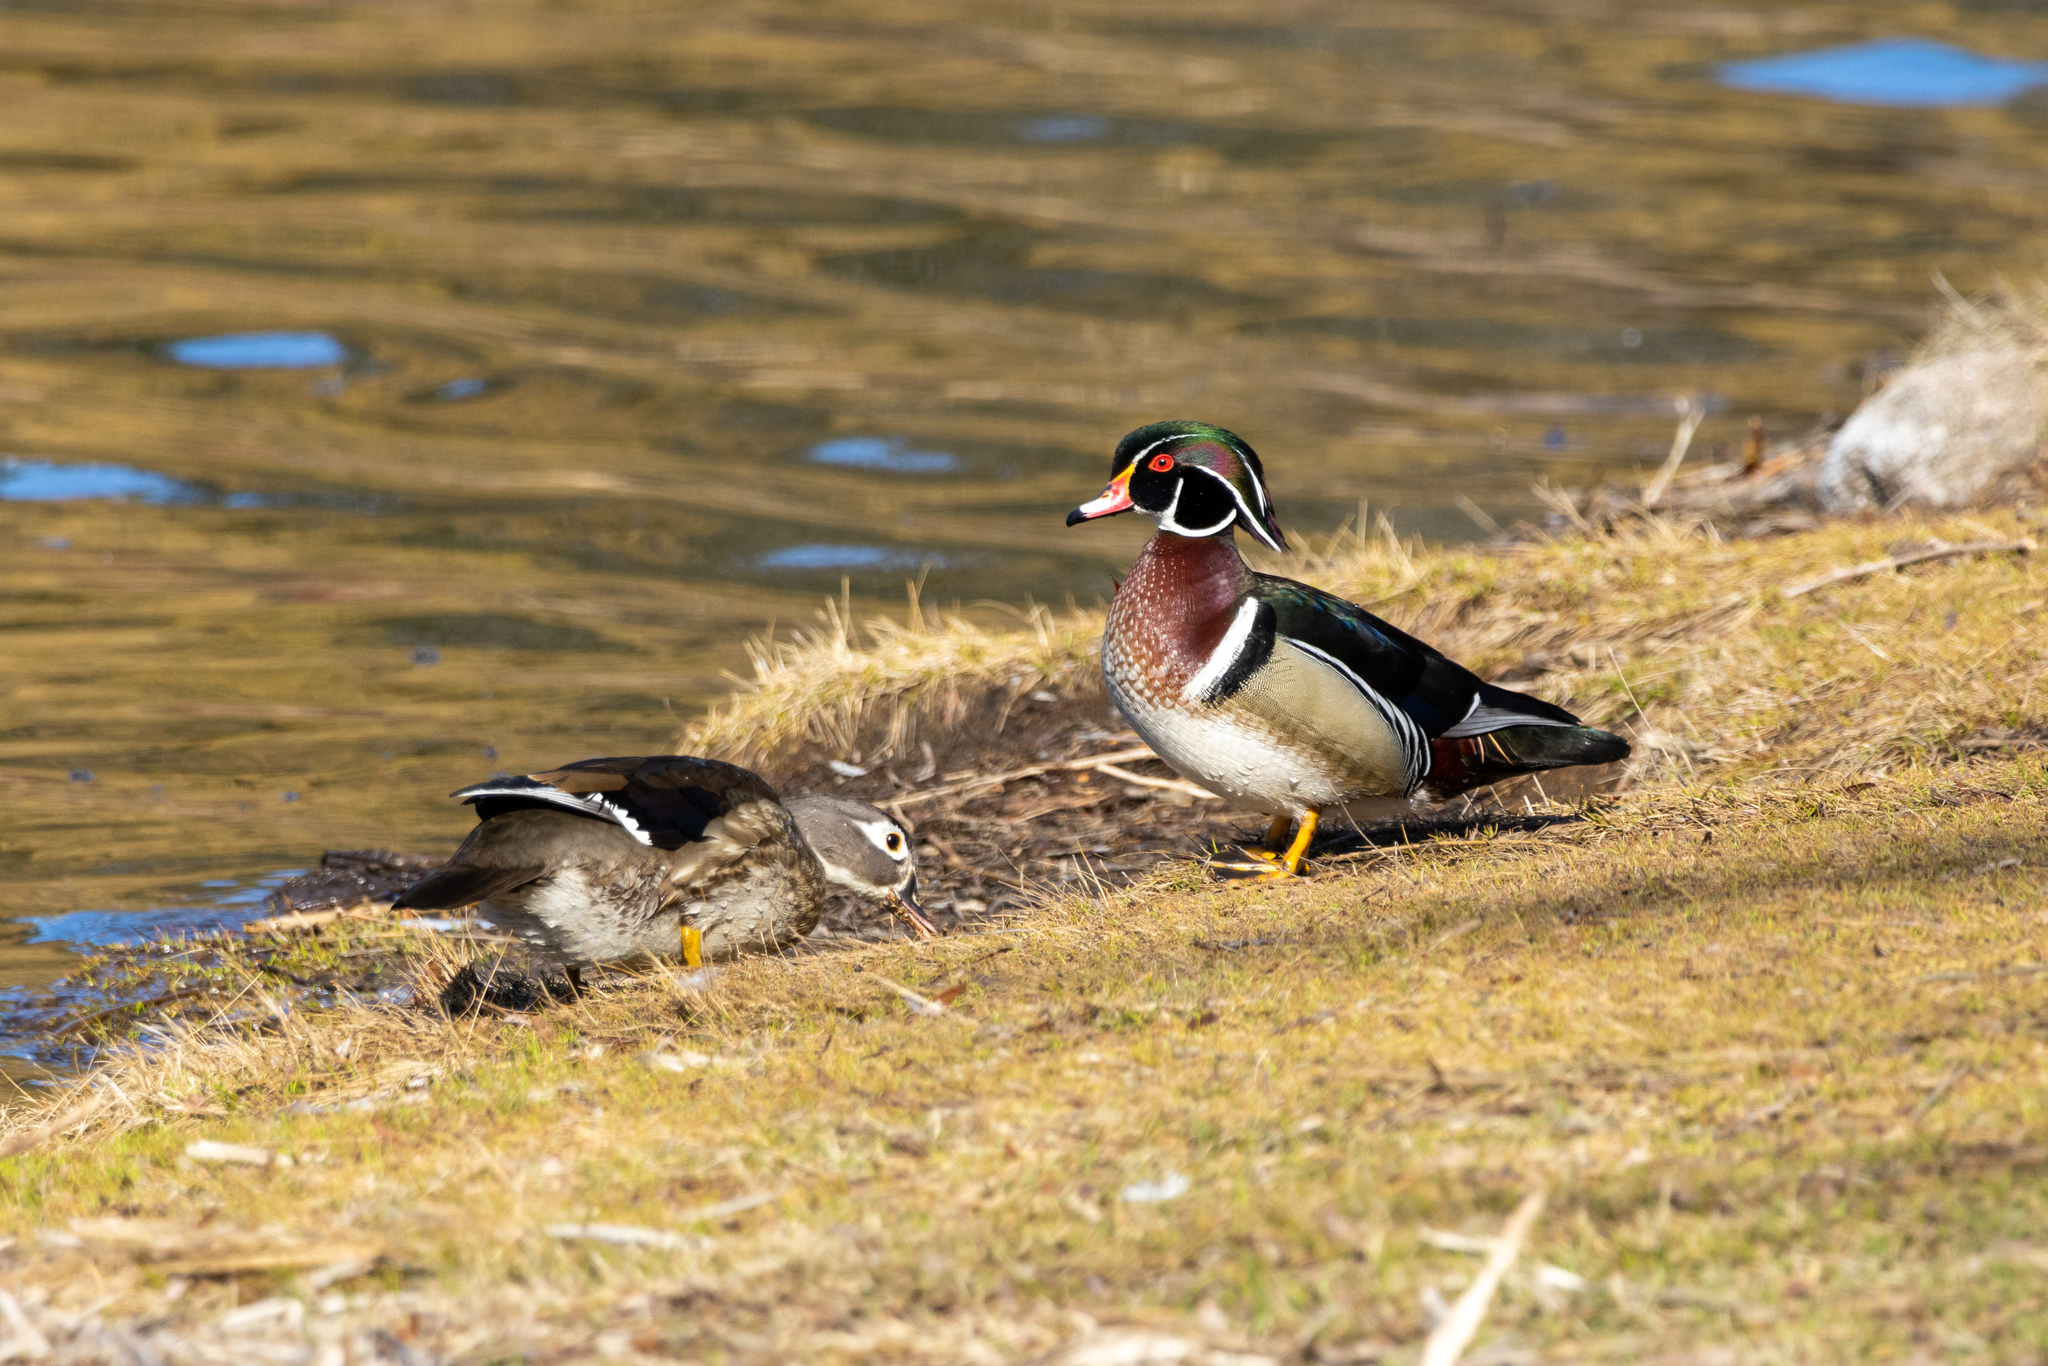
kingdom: Animalia
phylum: Chordata
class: Aves
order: Anseriformes
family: Anatidae
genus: Aix
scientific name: Aix sponsa
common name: Wood duck
